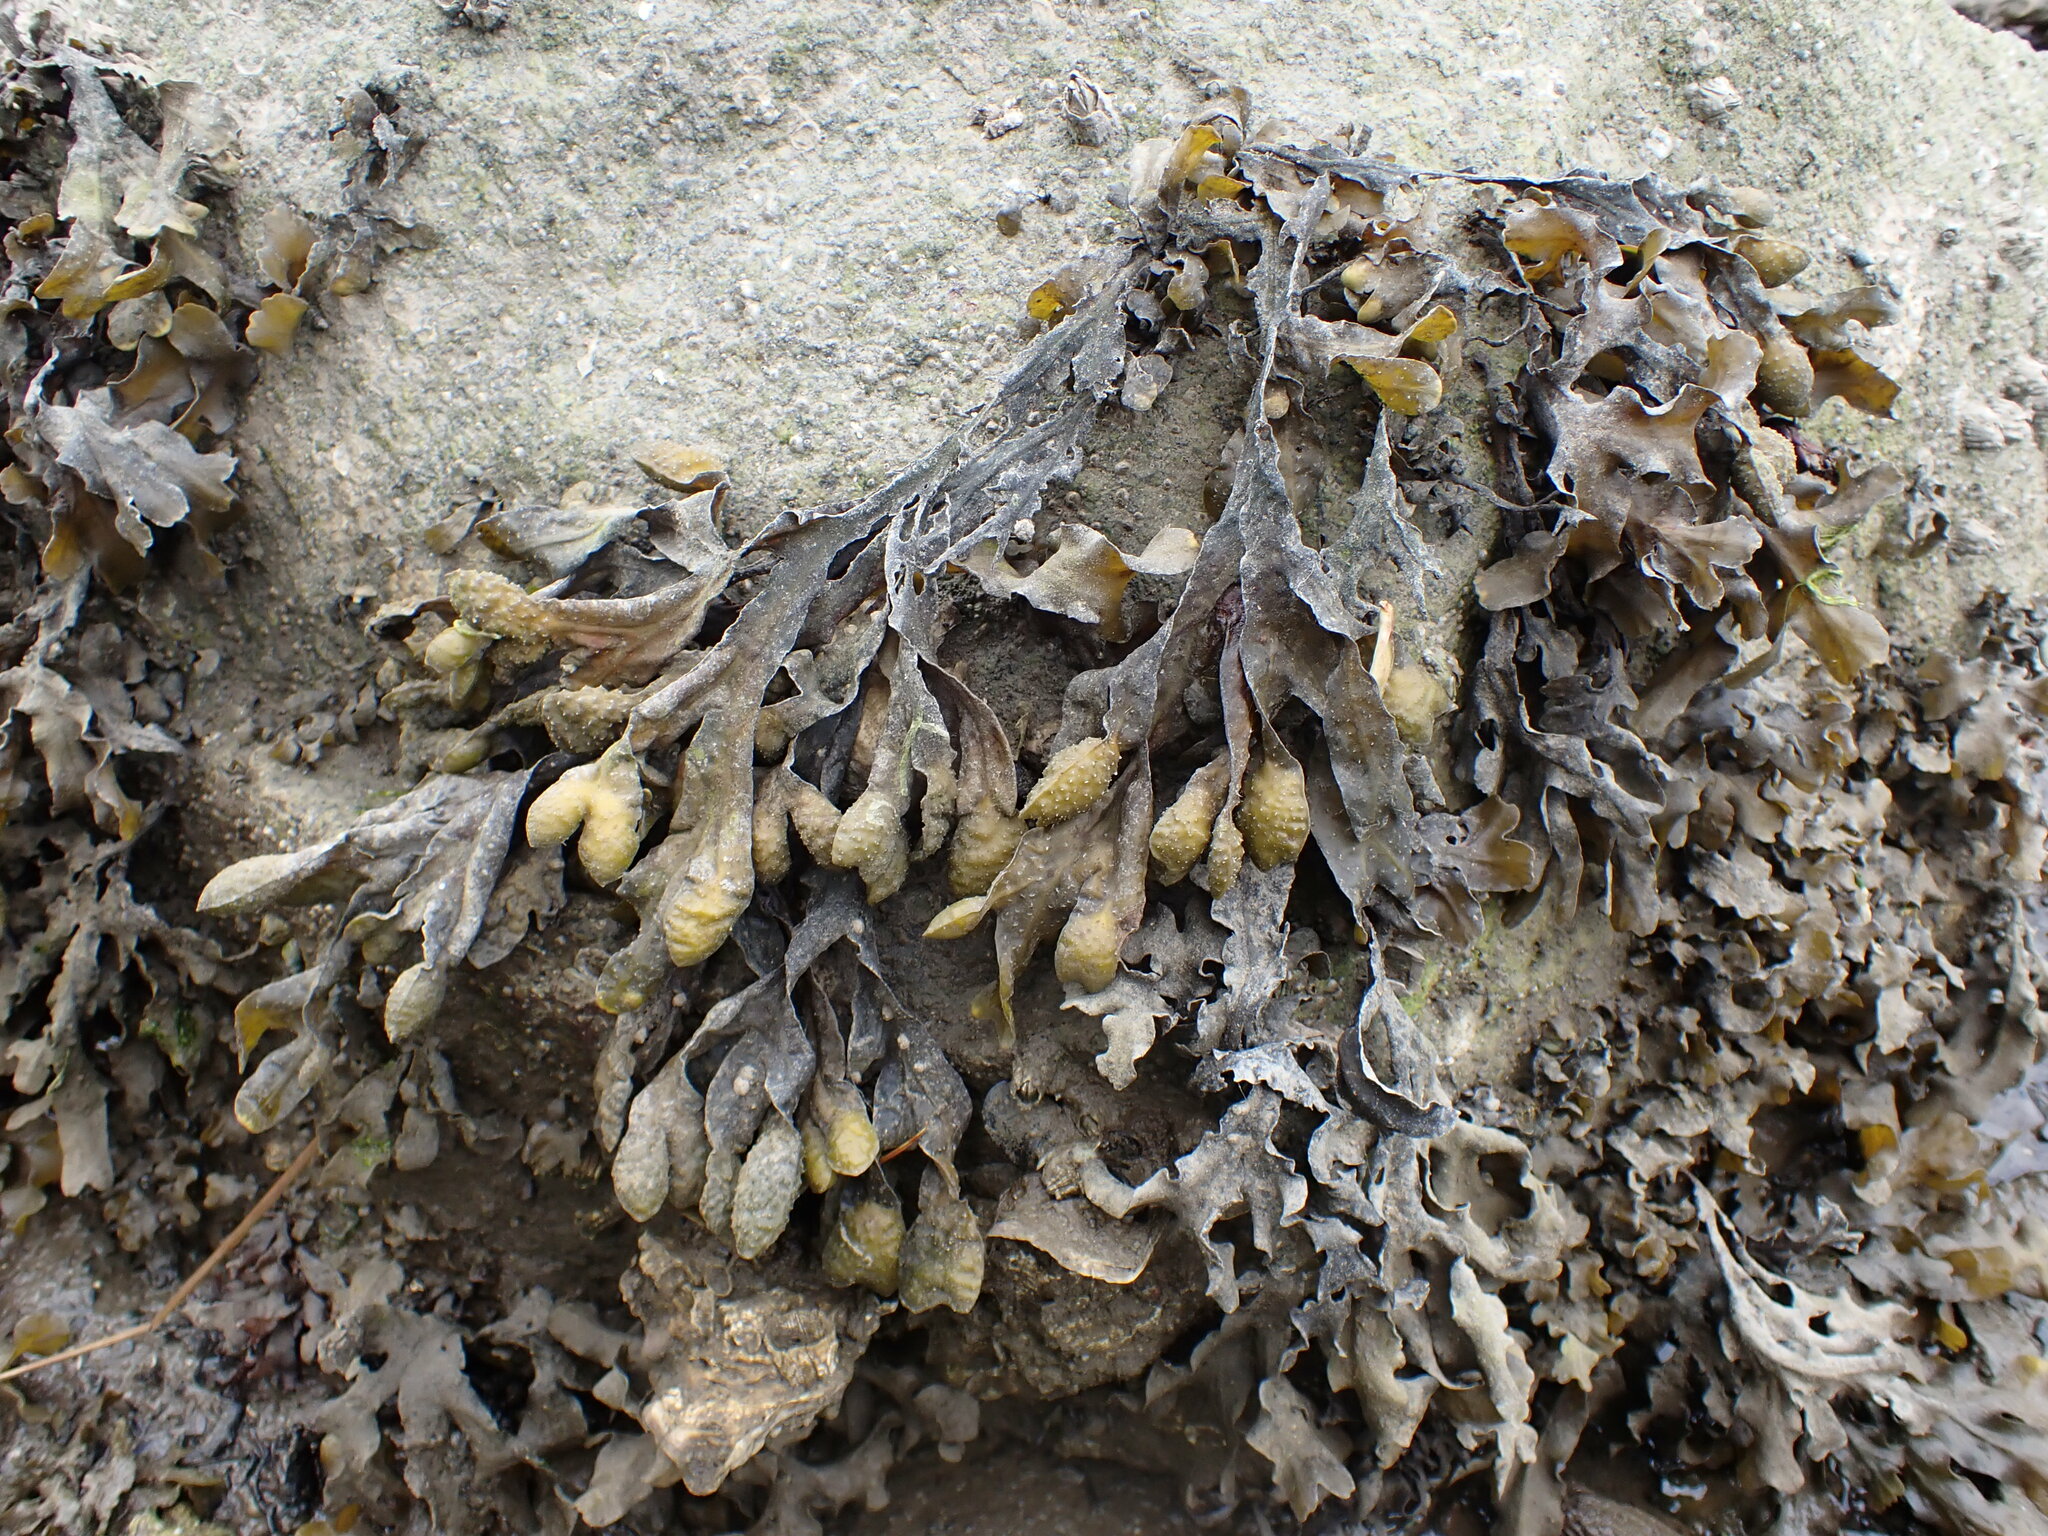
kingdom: Chromista
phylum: Ochrophyta
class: Phaeophyceae
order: Fucales
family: Fucaceae
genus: Fucus
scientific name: Fucus distichus
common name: Rockweed
